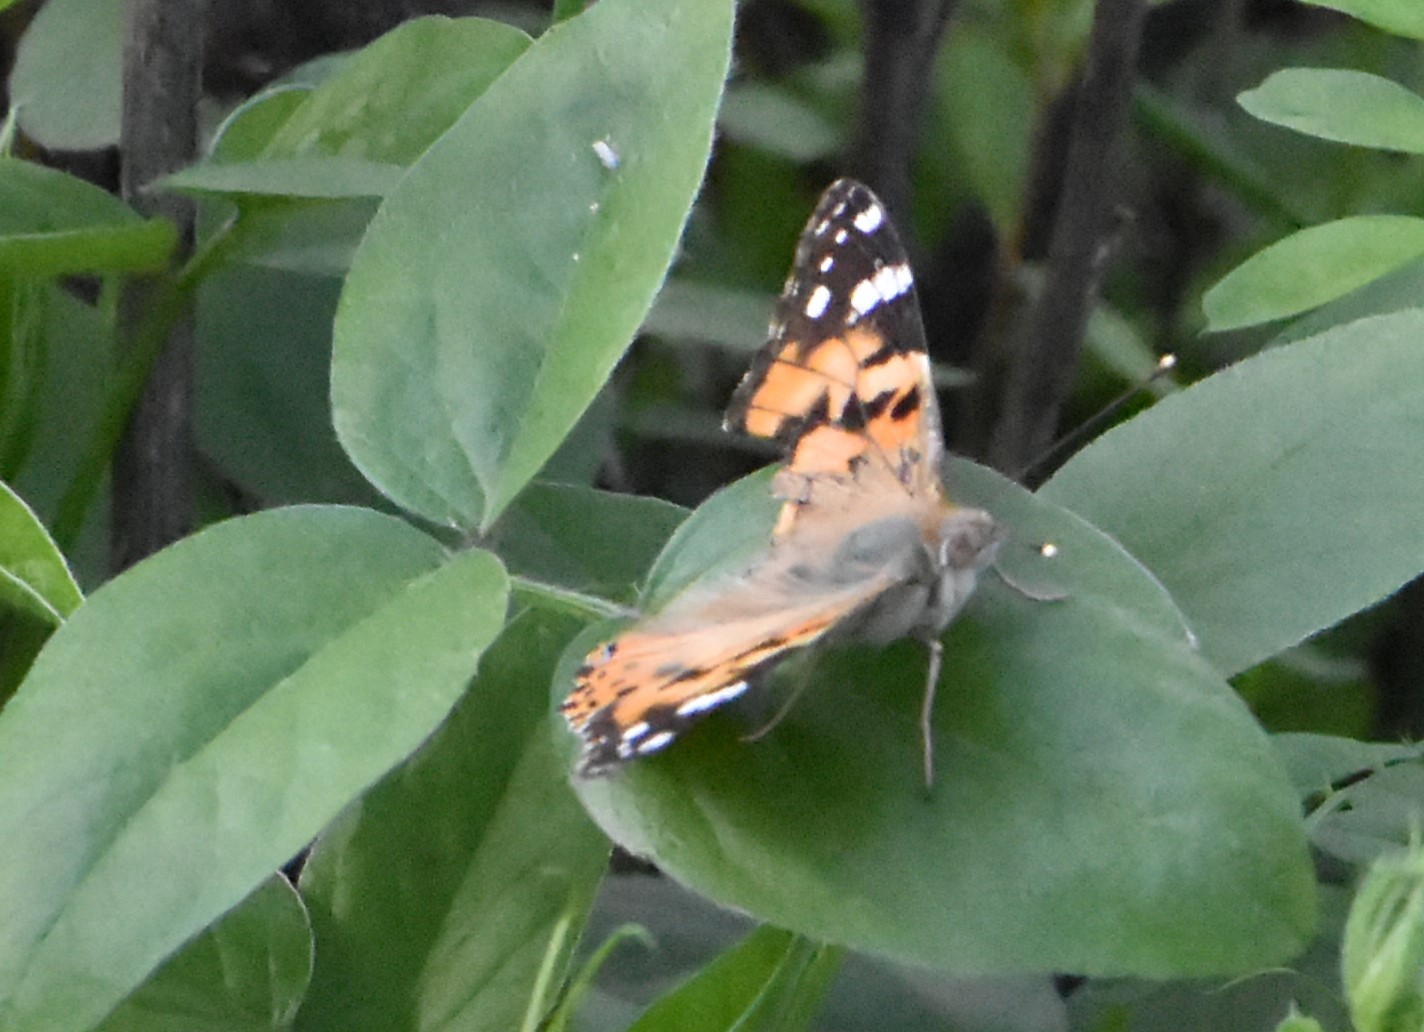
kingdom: Animalia
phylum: Arthropoda
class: Insecta
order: Lepidoptera
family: Nymphalidae
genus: Vanessa
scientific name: Vanessa cardui
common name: Painted lady
